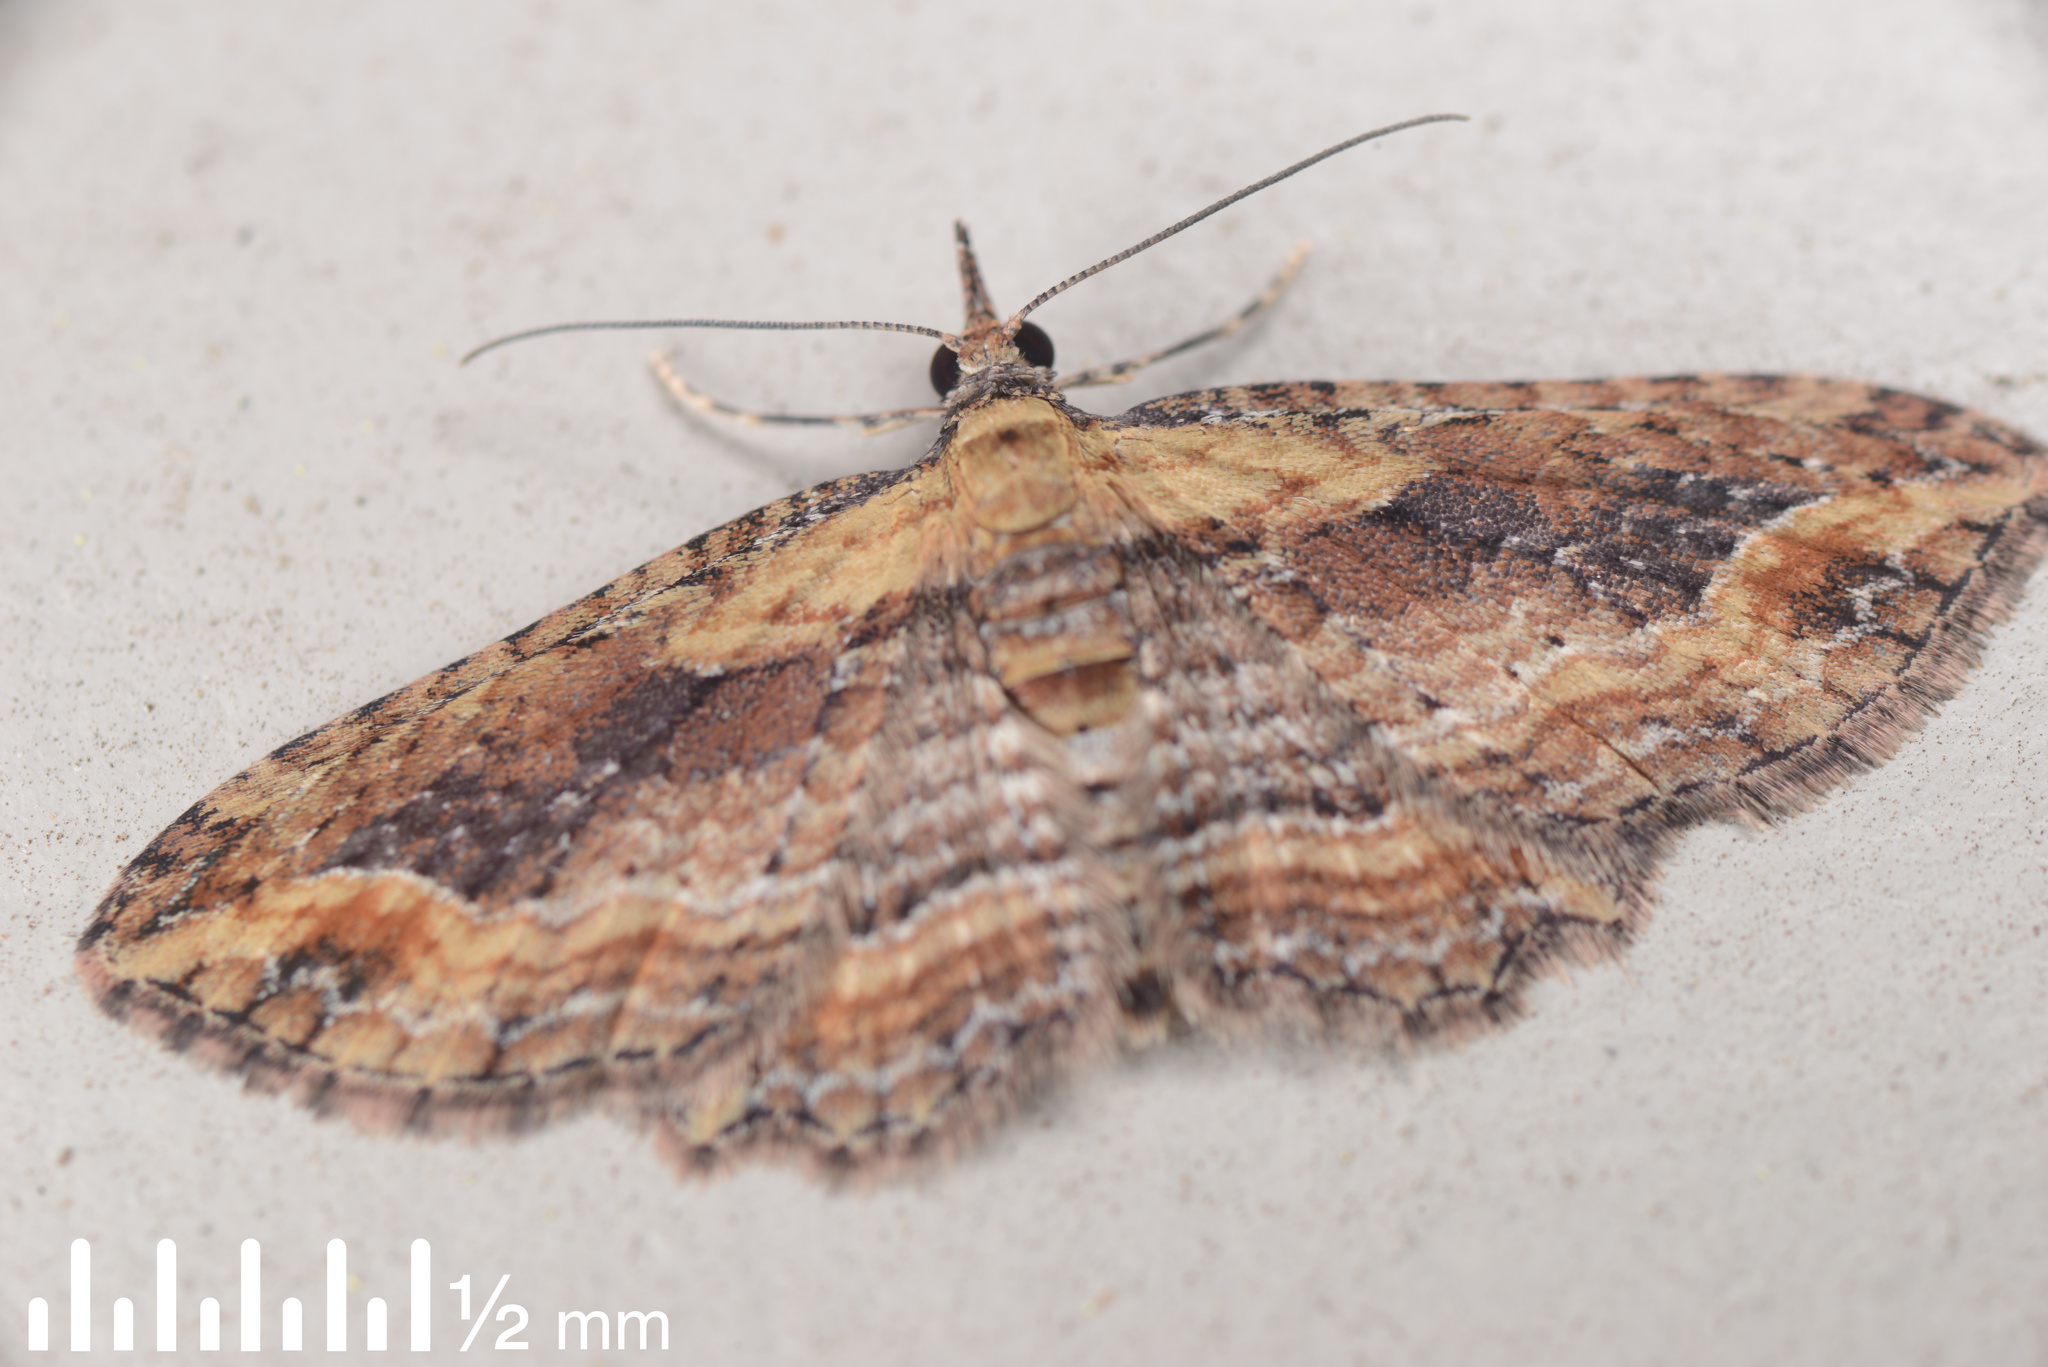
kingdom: Animalia
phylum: Arthropoda
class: Insecta
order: Lepidoptera
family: Geometridae
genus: Chloroclystis
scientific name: Chloroclystis filata
